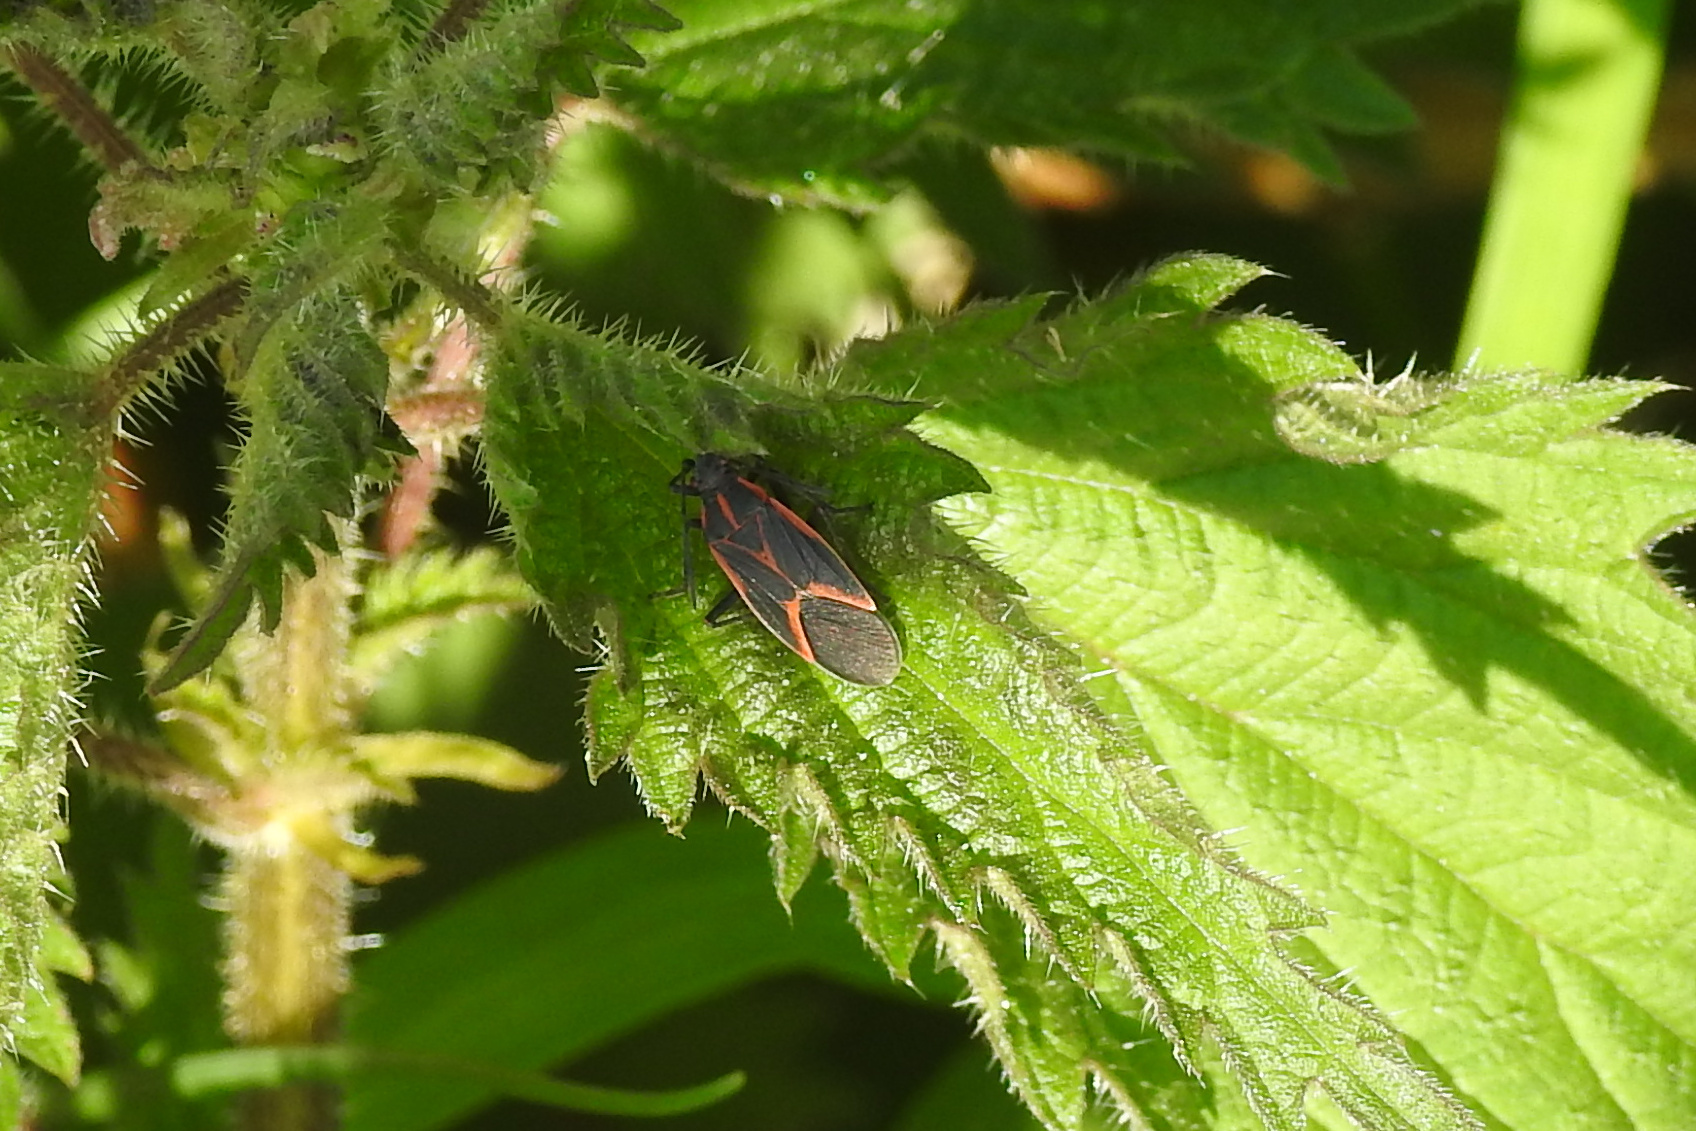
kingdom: Animalia
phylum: Arthropoda
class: Insecta
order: Hemiptera
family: Rhopalidae
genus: Boisea
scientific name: Boisea trivittata
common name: Boxelder bug
